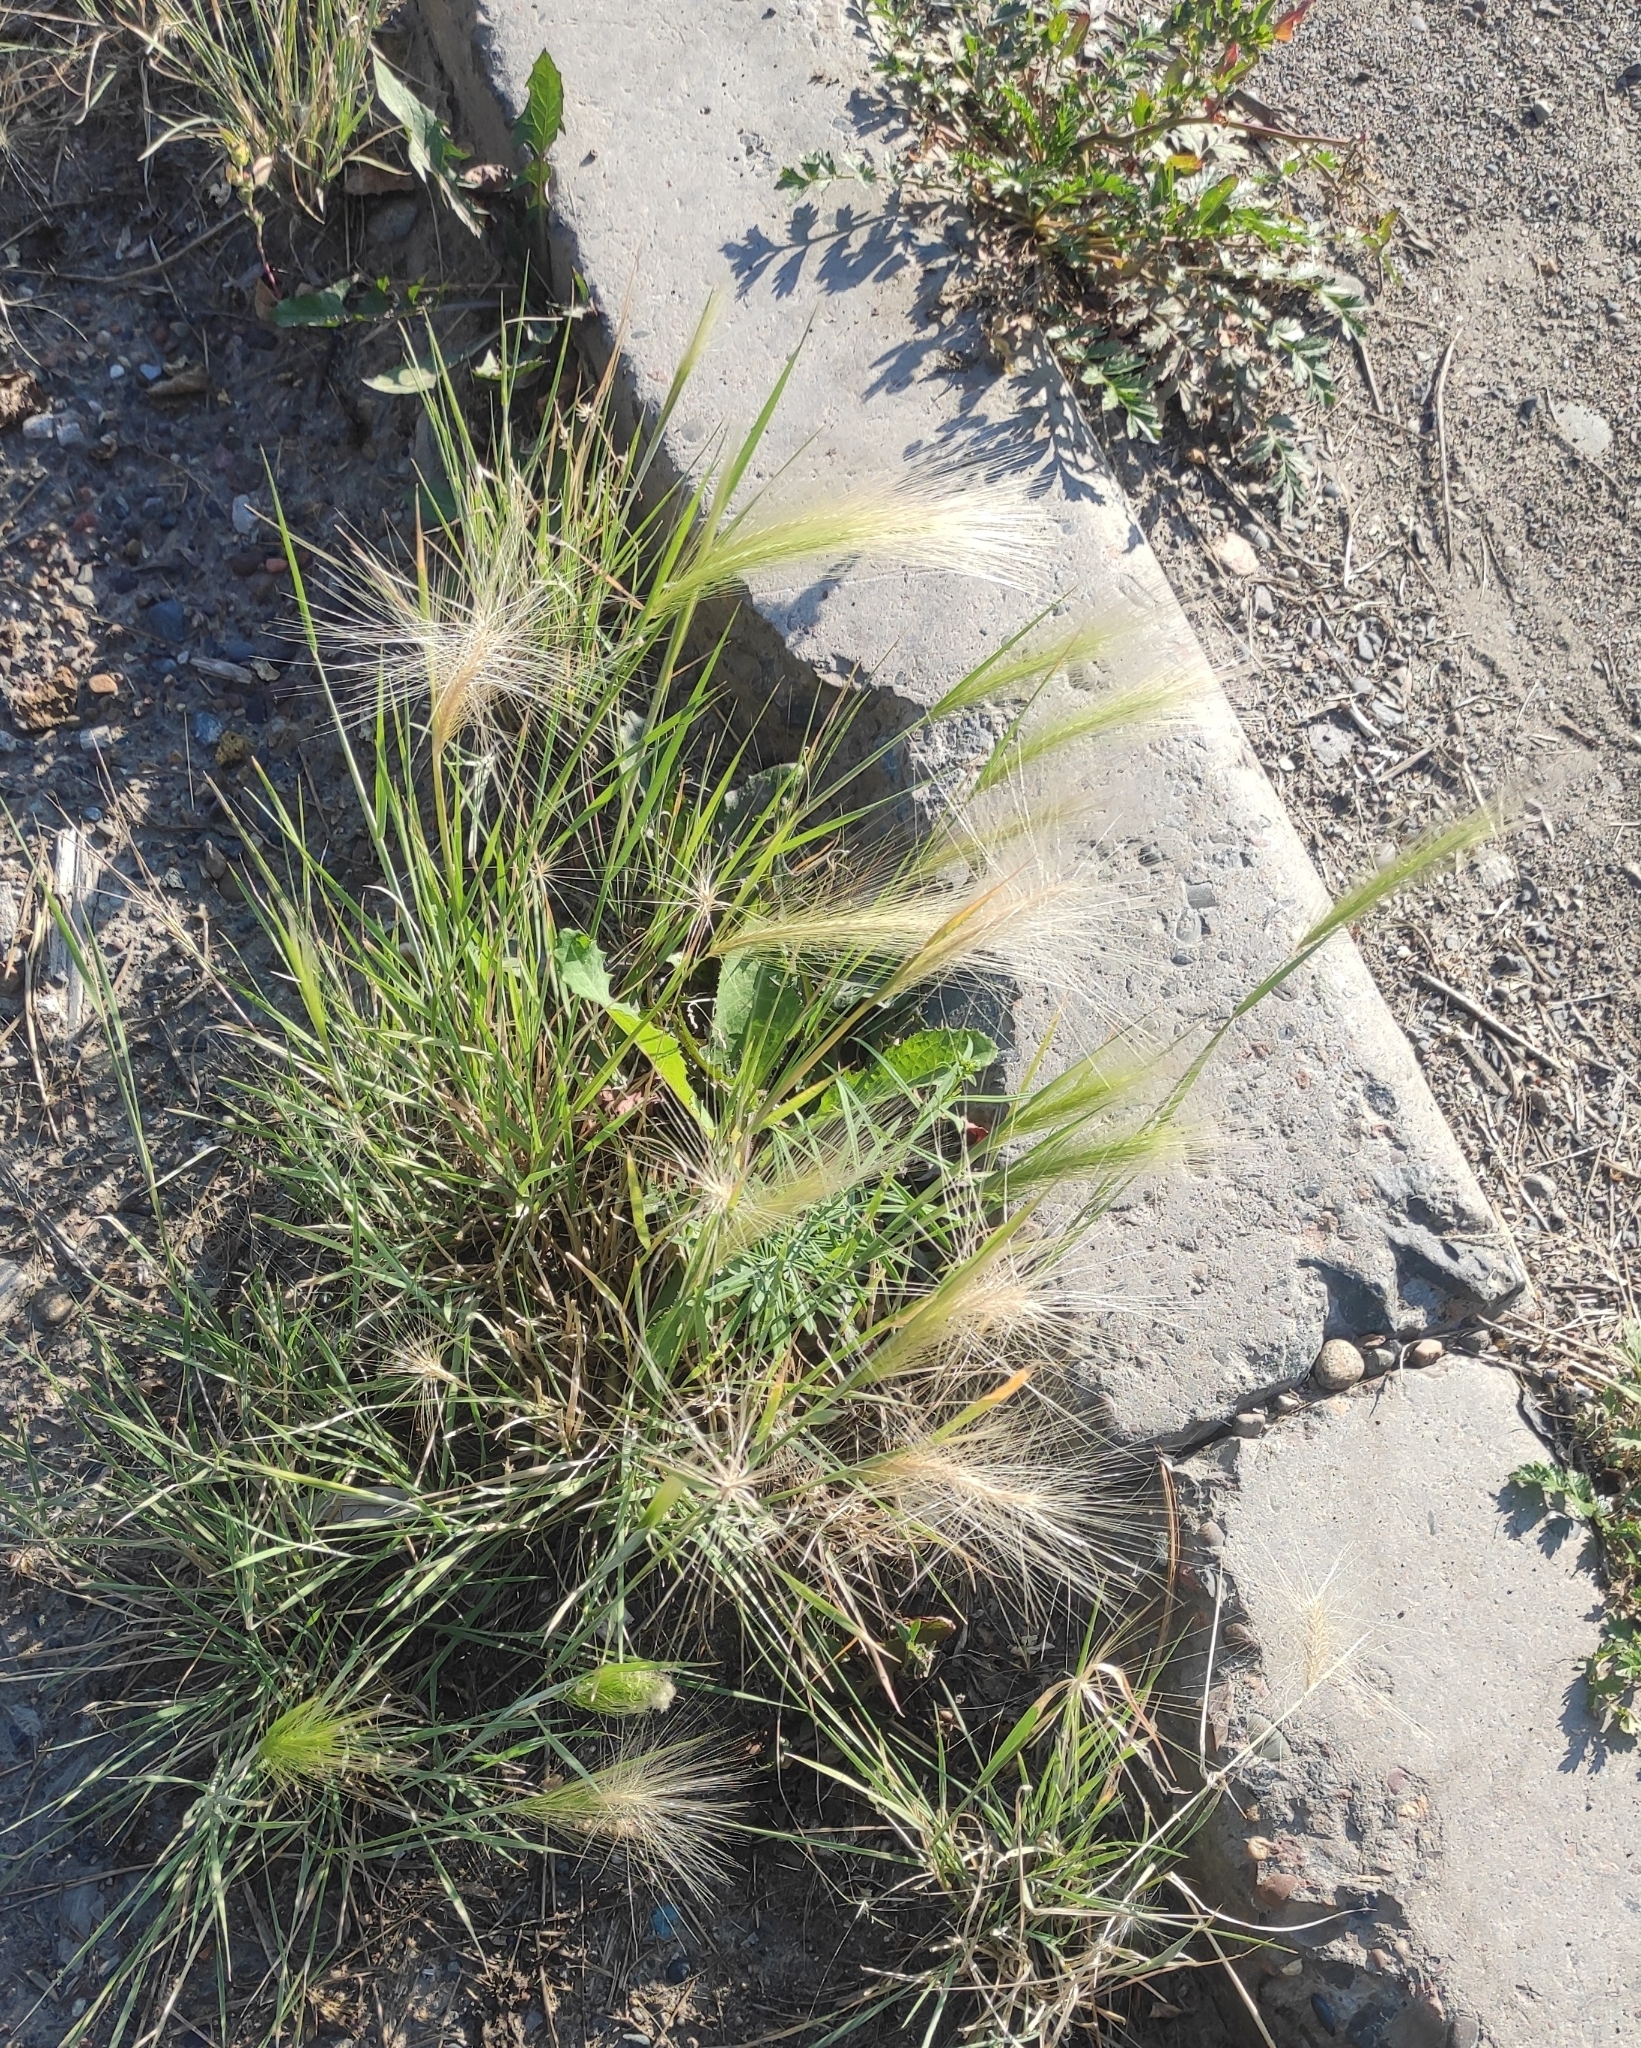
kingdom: Plantae
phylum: Tracheophyta
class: Liliopsida
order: Poales
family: Poaceae
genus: Hordeum
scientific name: Hordeum jubatum
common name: Foxtail barley
